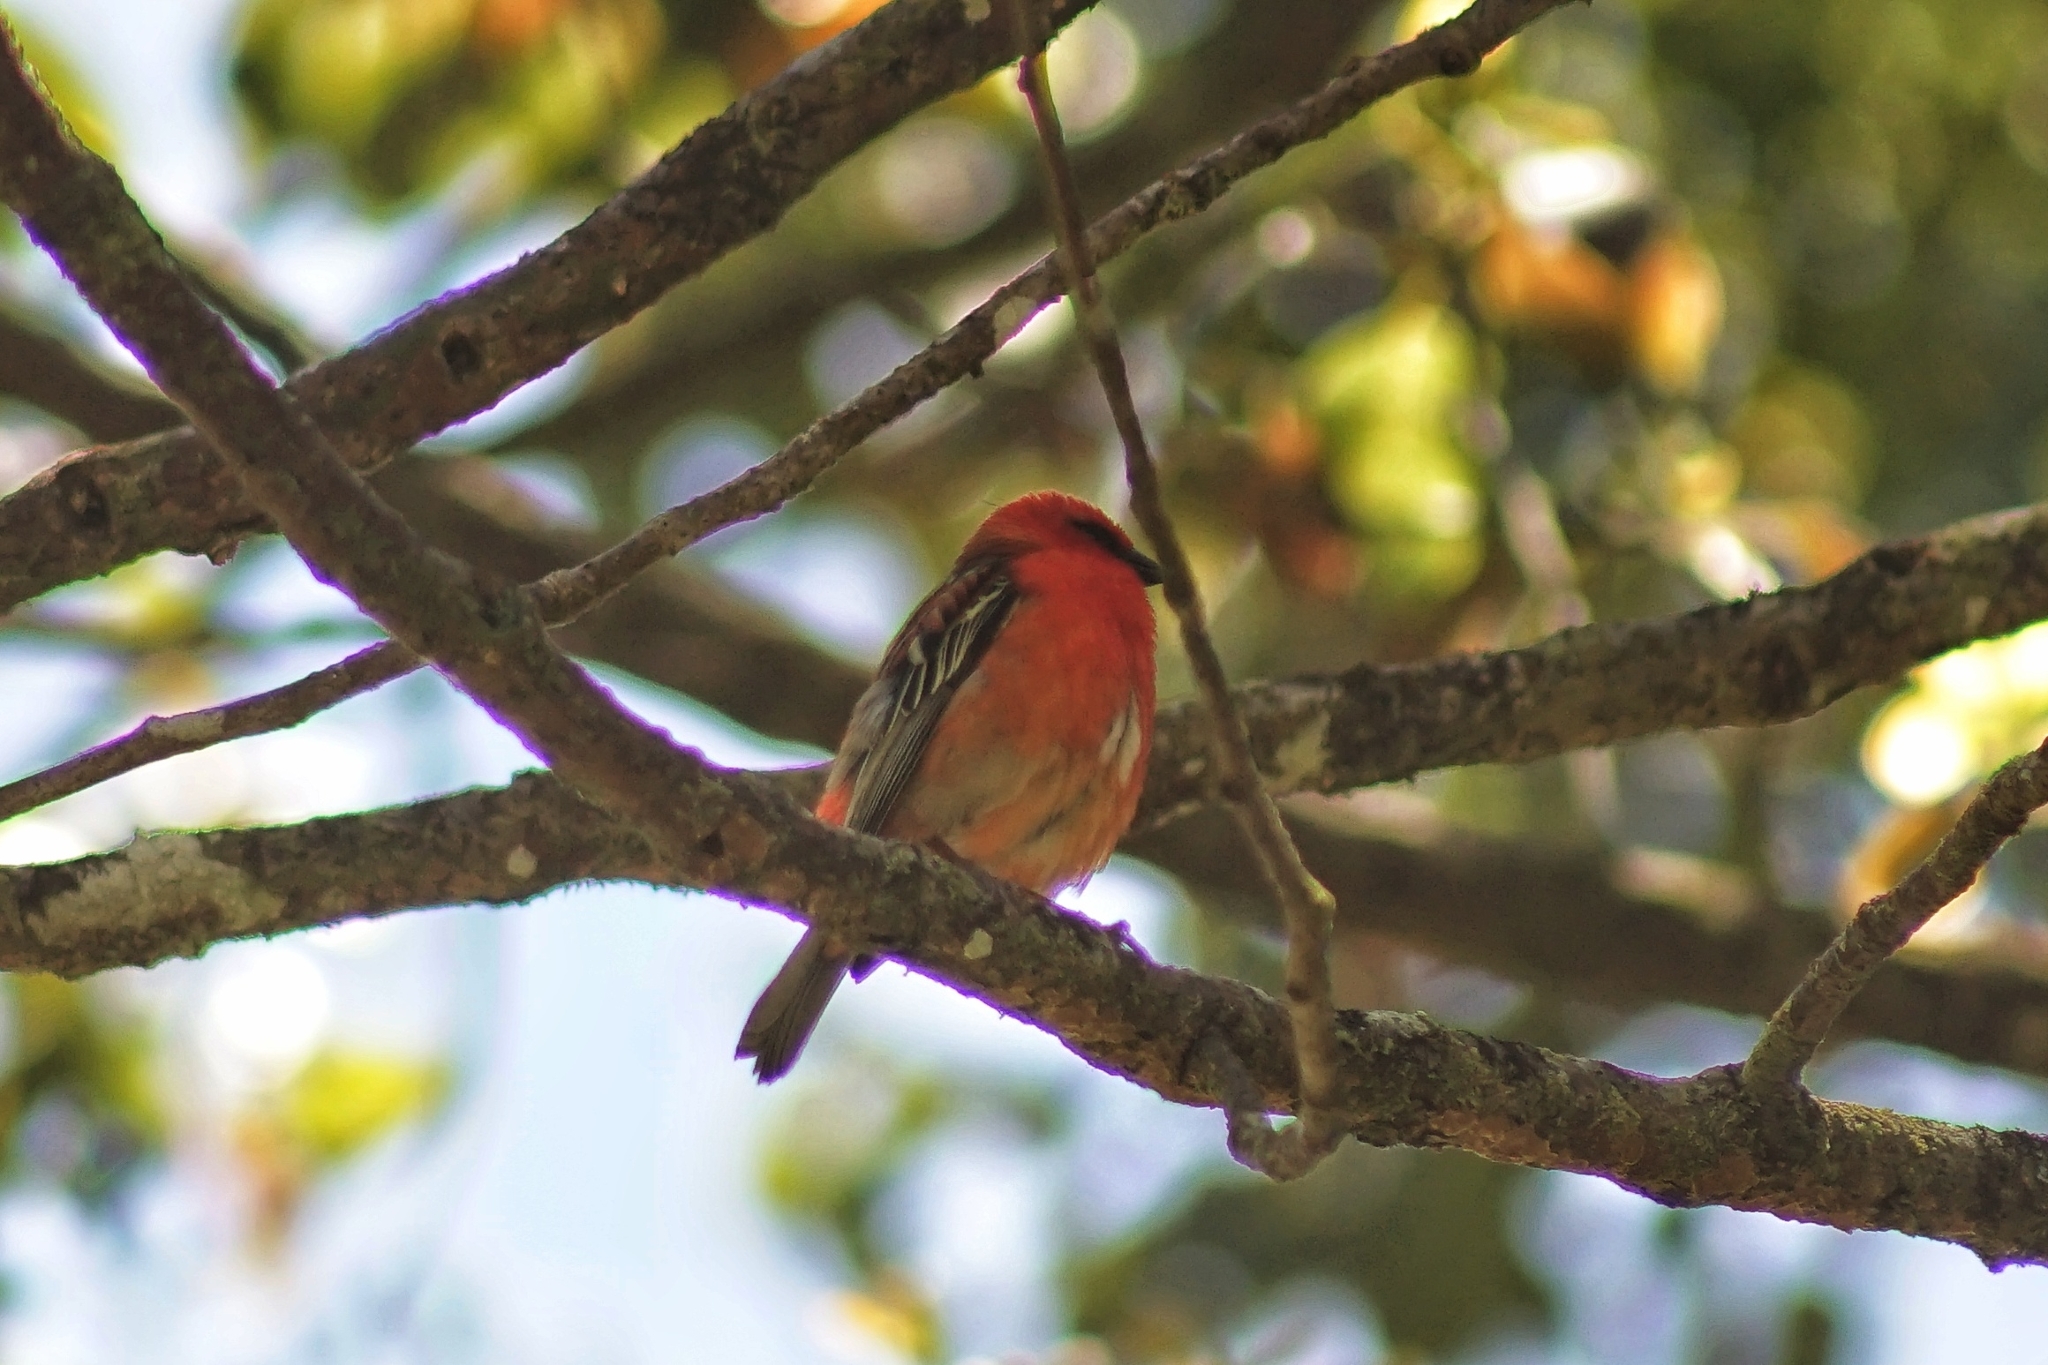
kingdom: Animalia
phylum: Chordata
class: Aves
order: Passeriformes
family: Ploceidae
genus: Foudia
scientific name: Foudia madagascariensis
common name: Red fody
